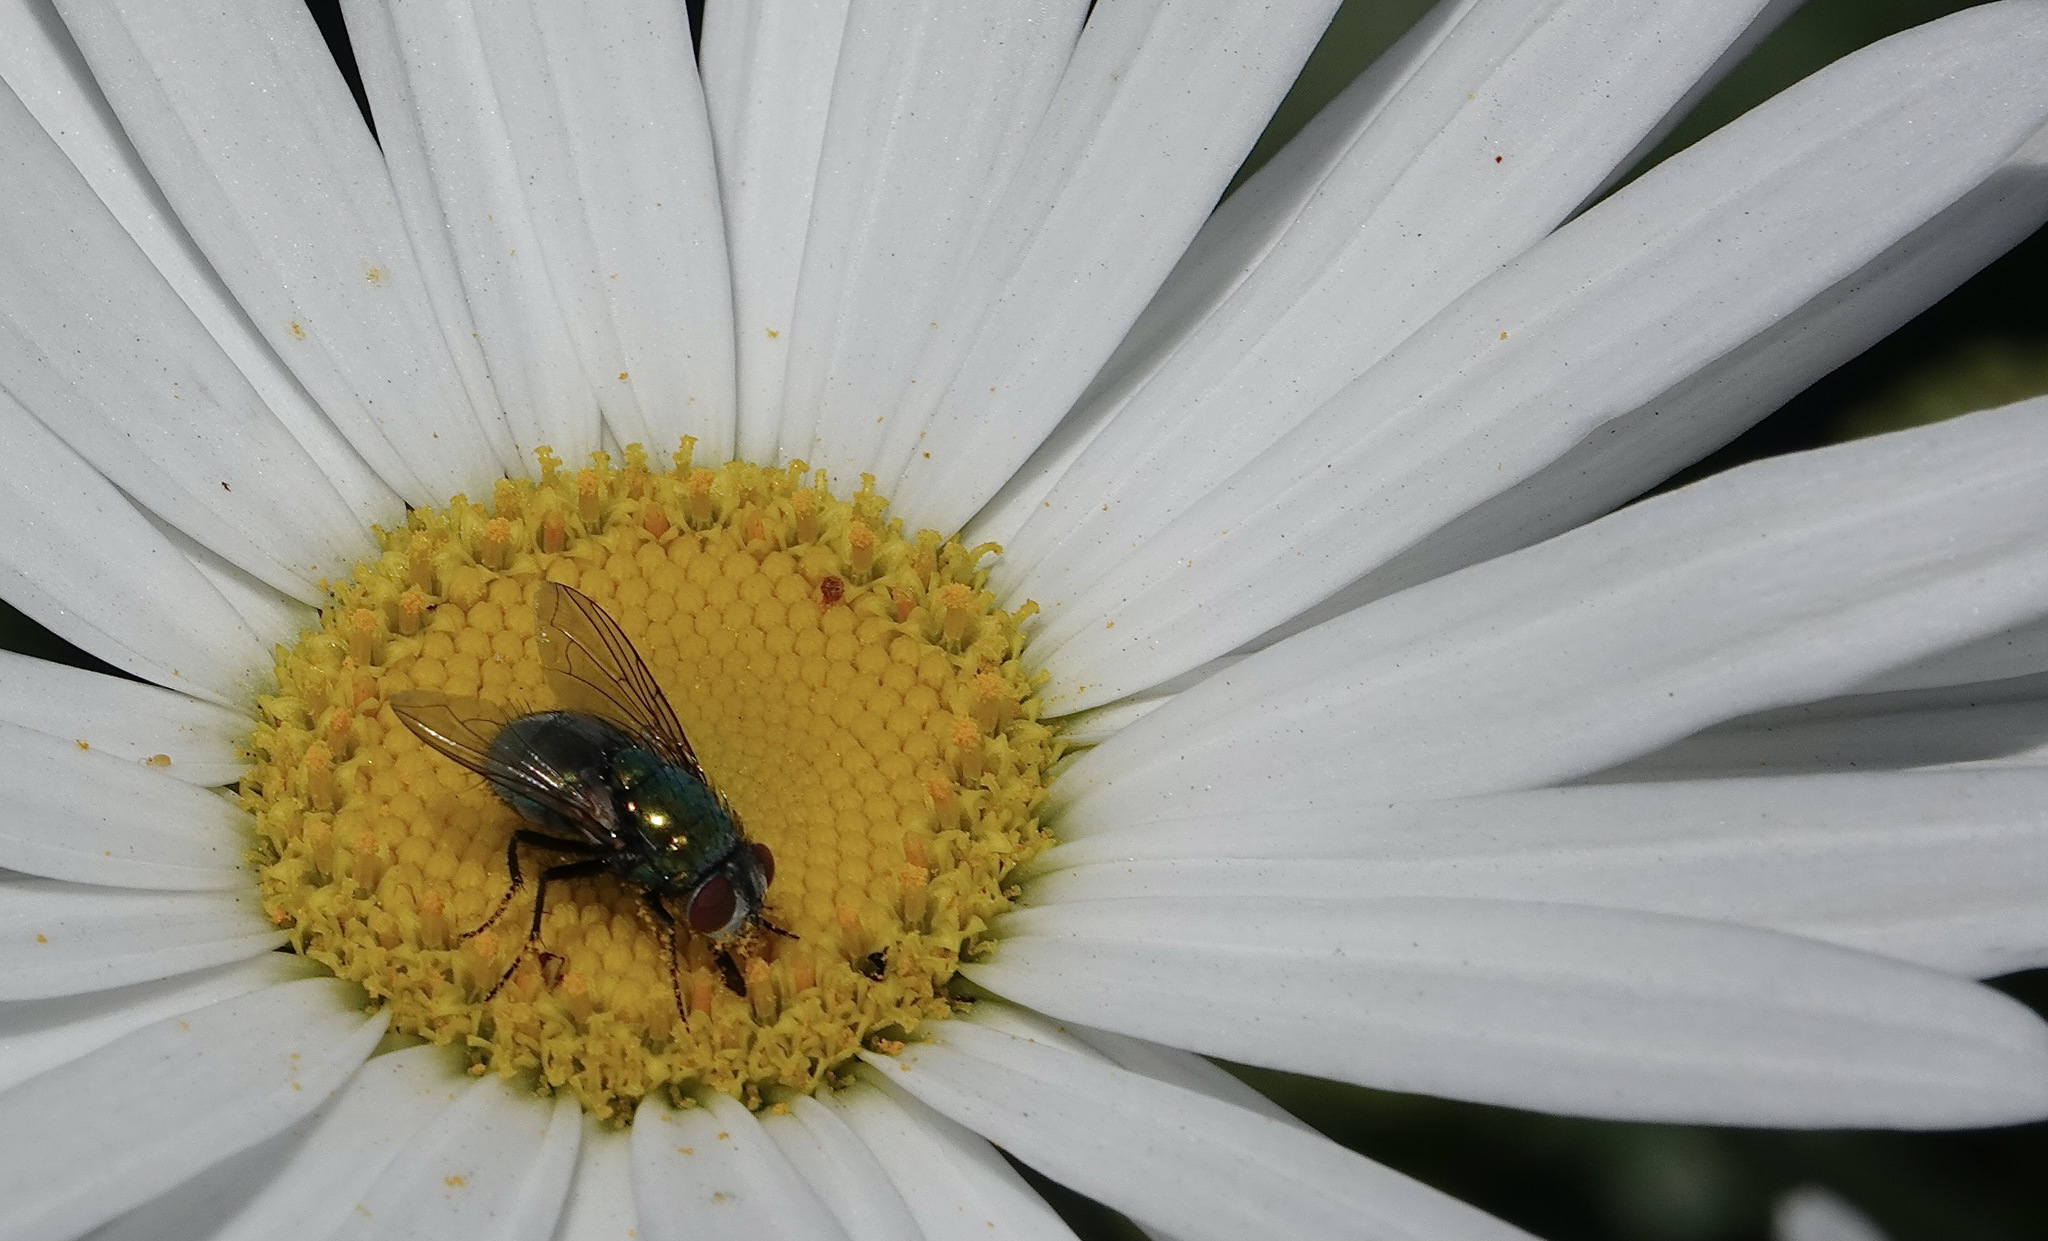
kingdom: Animalia
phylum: Arthropoda
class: Insecta
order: Diptera
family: Calliphoridae
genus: Lucilia
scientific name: Lucilia sericata
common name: Blow fly
